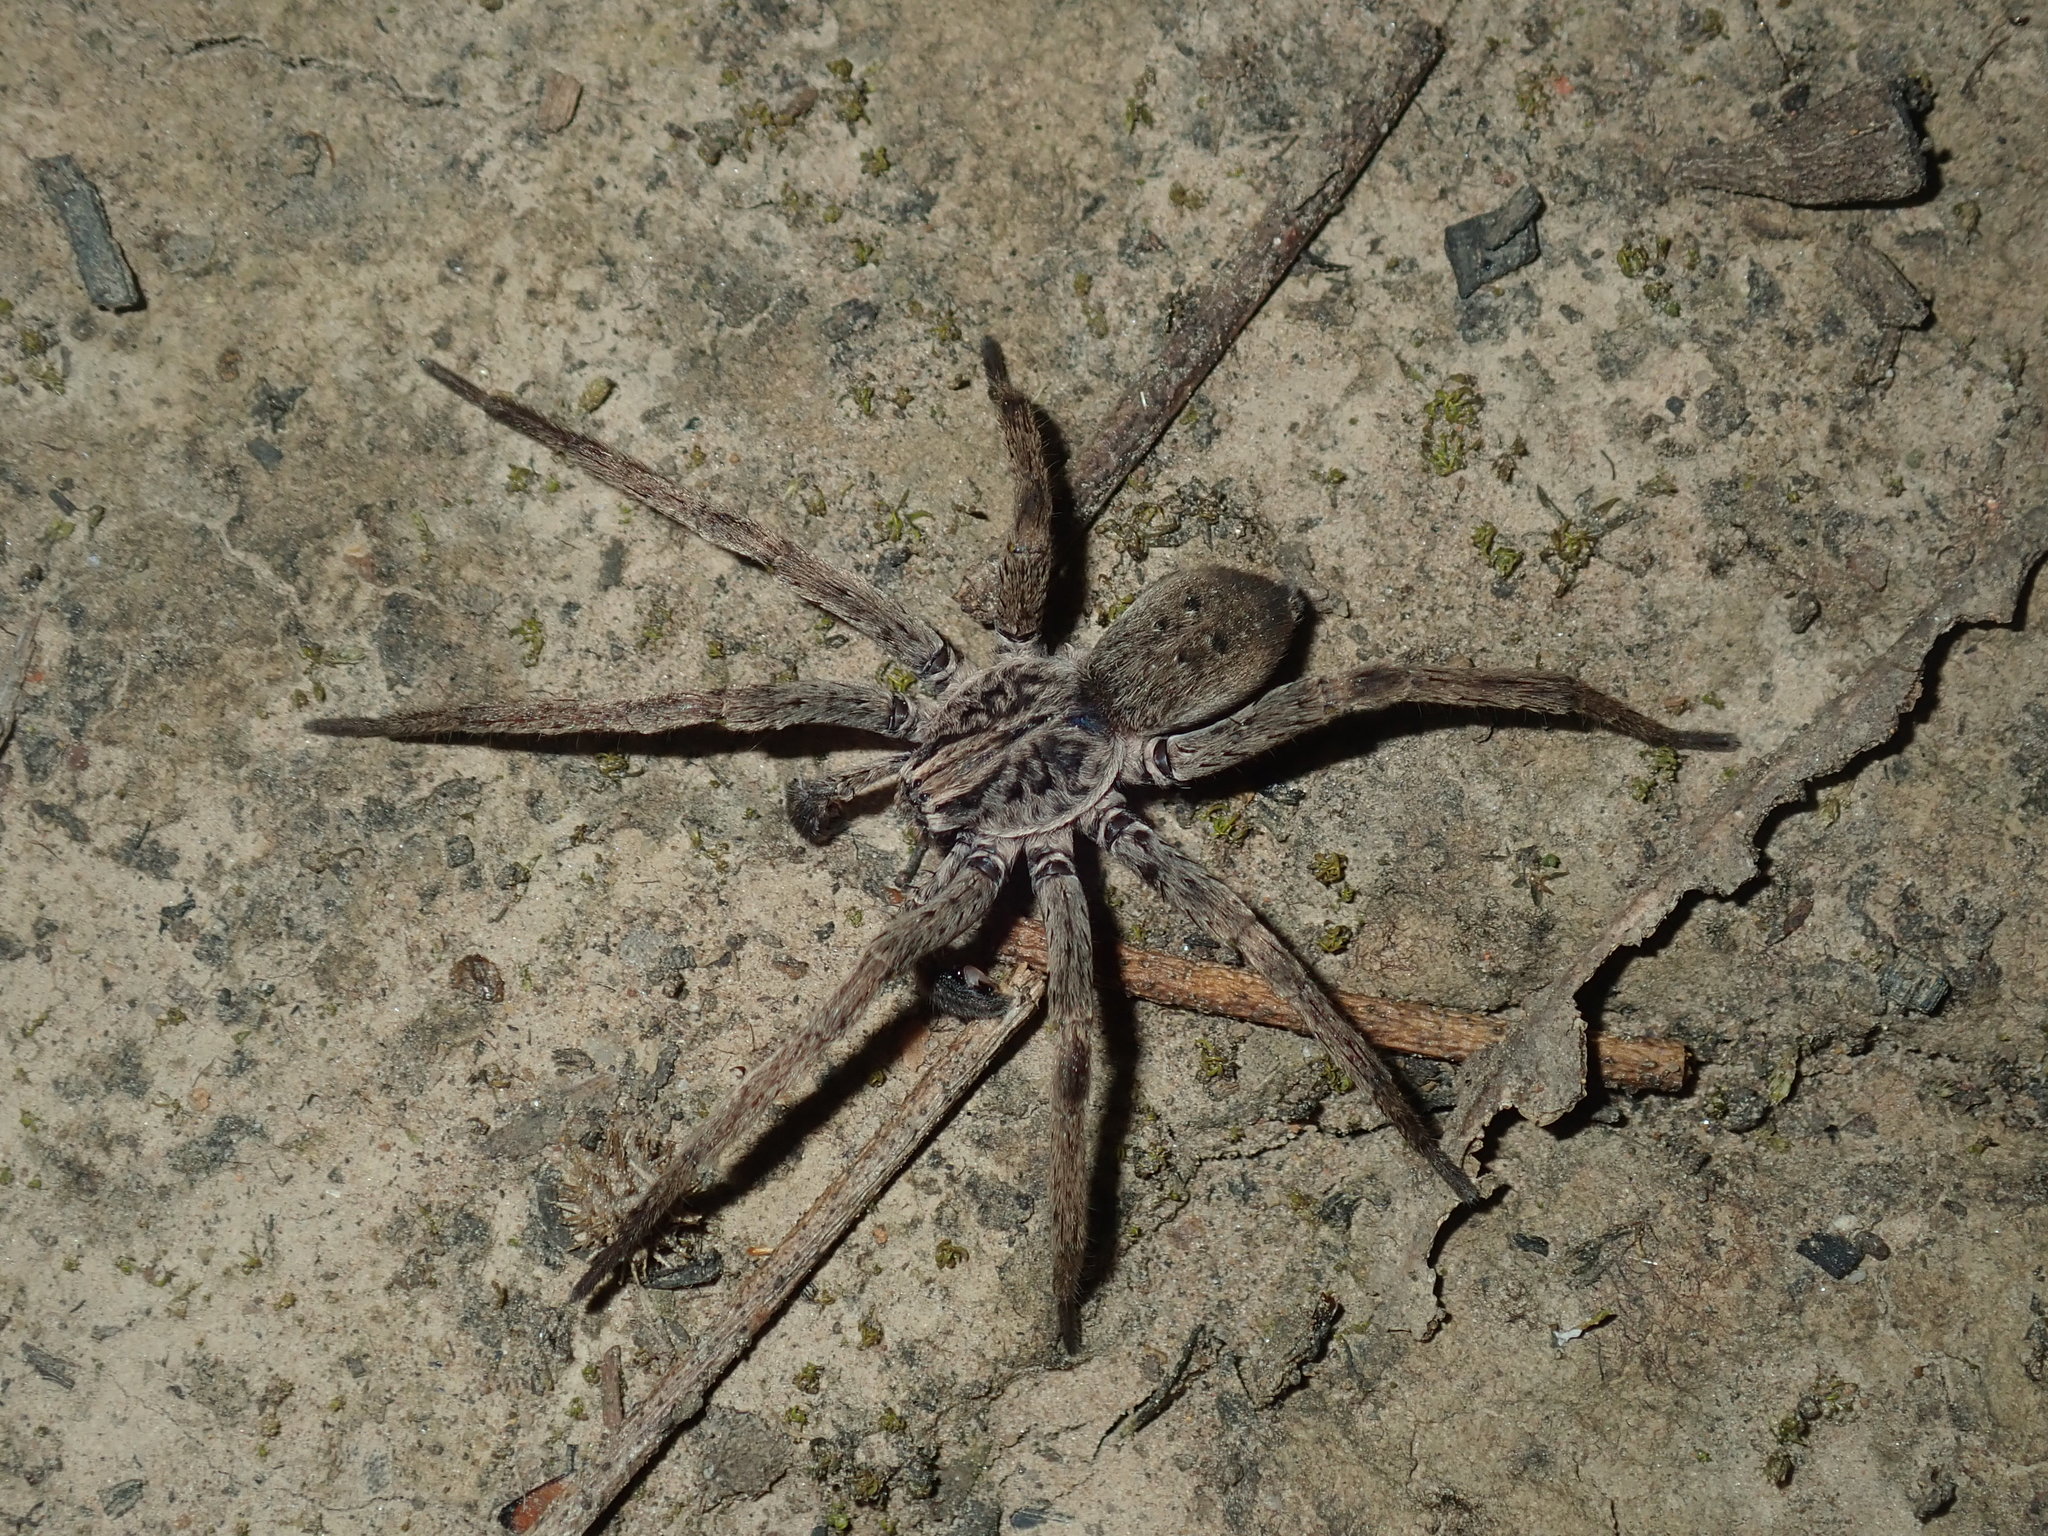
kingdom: Animalia
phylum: Arthropoda
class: Arachnida
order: Araneae
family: Miturgidae
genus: Mituliodon
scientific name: Mituliodon tarantulinus
